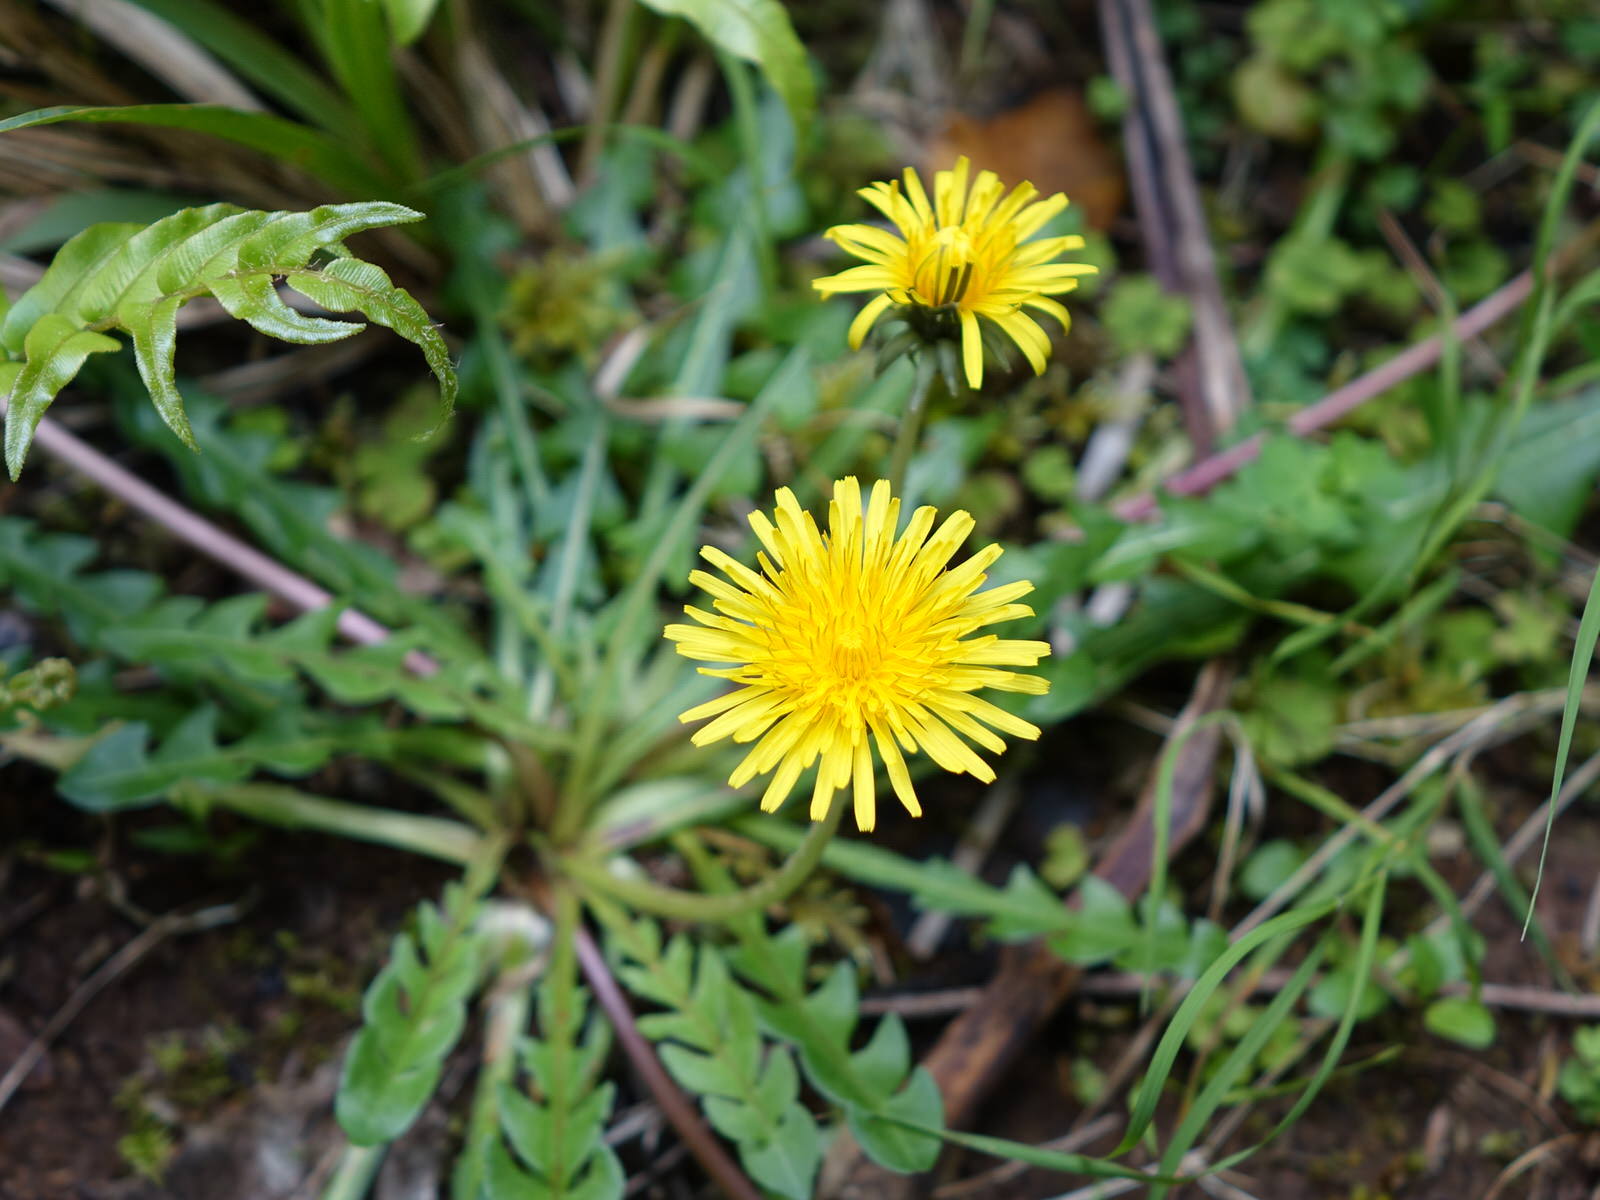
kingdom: Plantae
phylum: Tracheophyta
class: Magnoliopsida
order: Asterales
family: Asteraceae
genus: Taraxacum
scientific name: Taraxacum officinale
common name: Common dandelion
